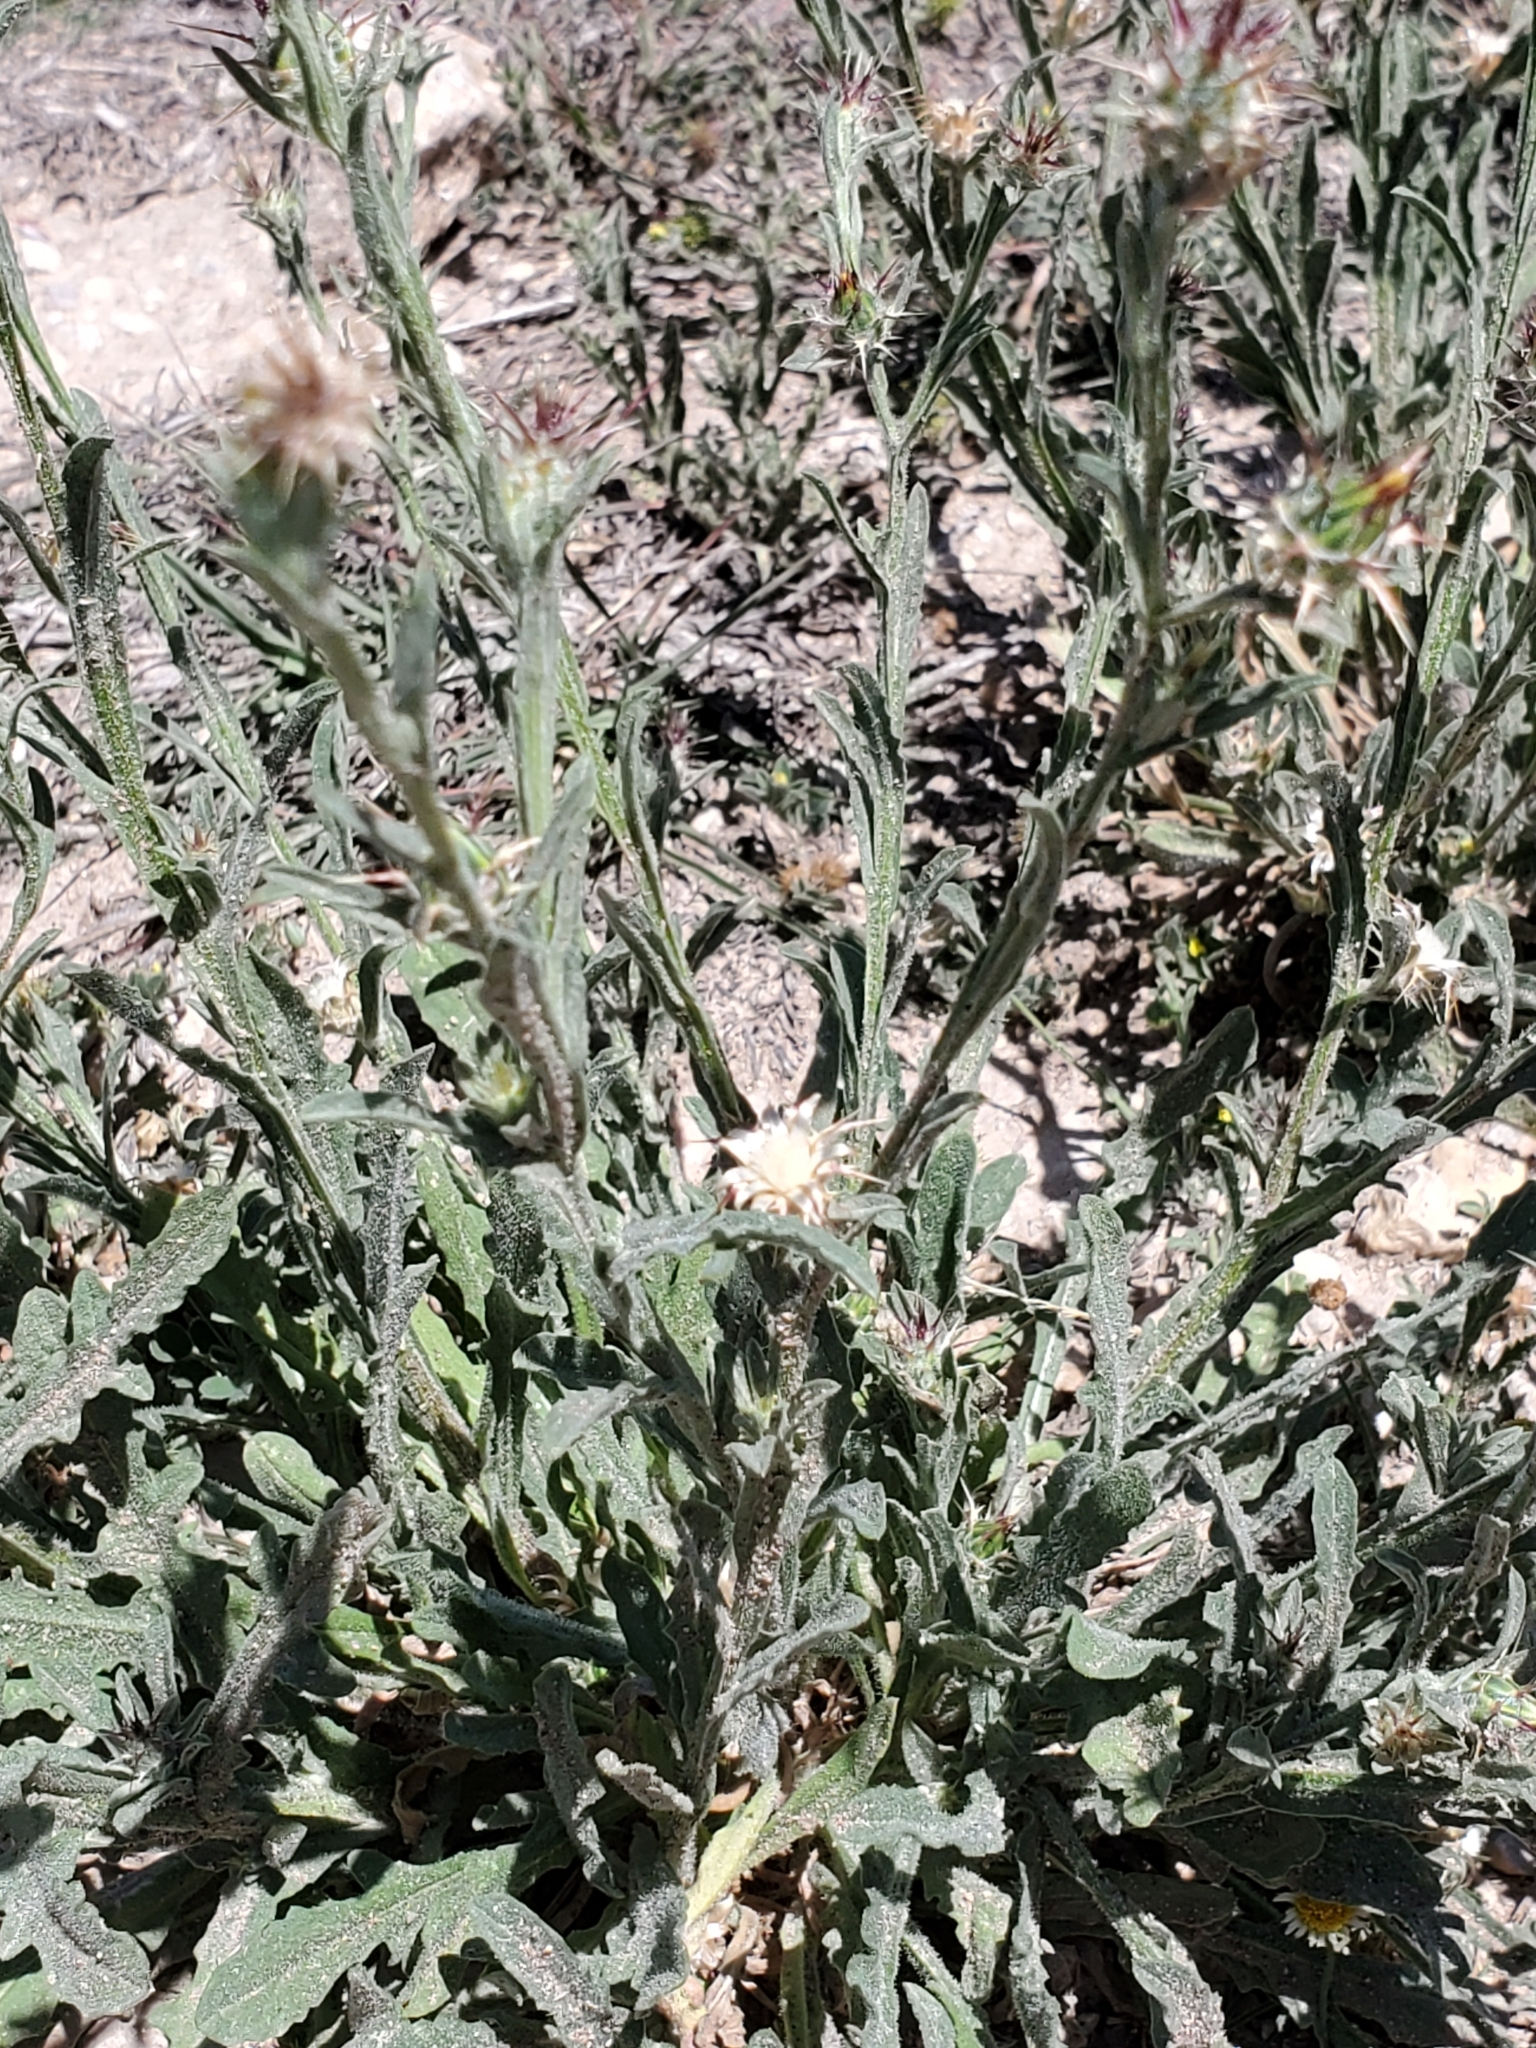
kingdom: Plantae
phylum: Tracheophyta
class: Magnoliopsida
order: Asterales
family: Asteraceae
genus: Centaurea
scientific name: Centaurea melitensis
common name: Maltese star-thistle
